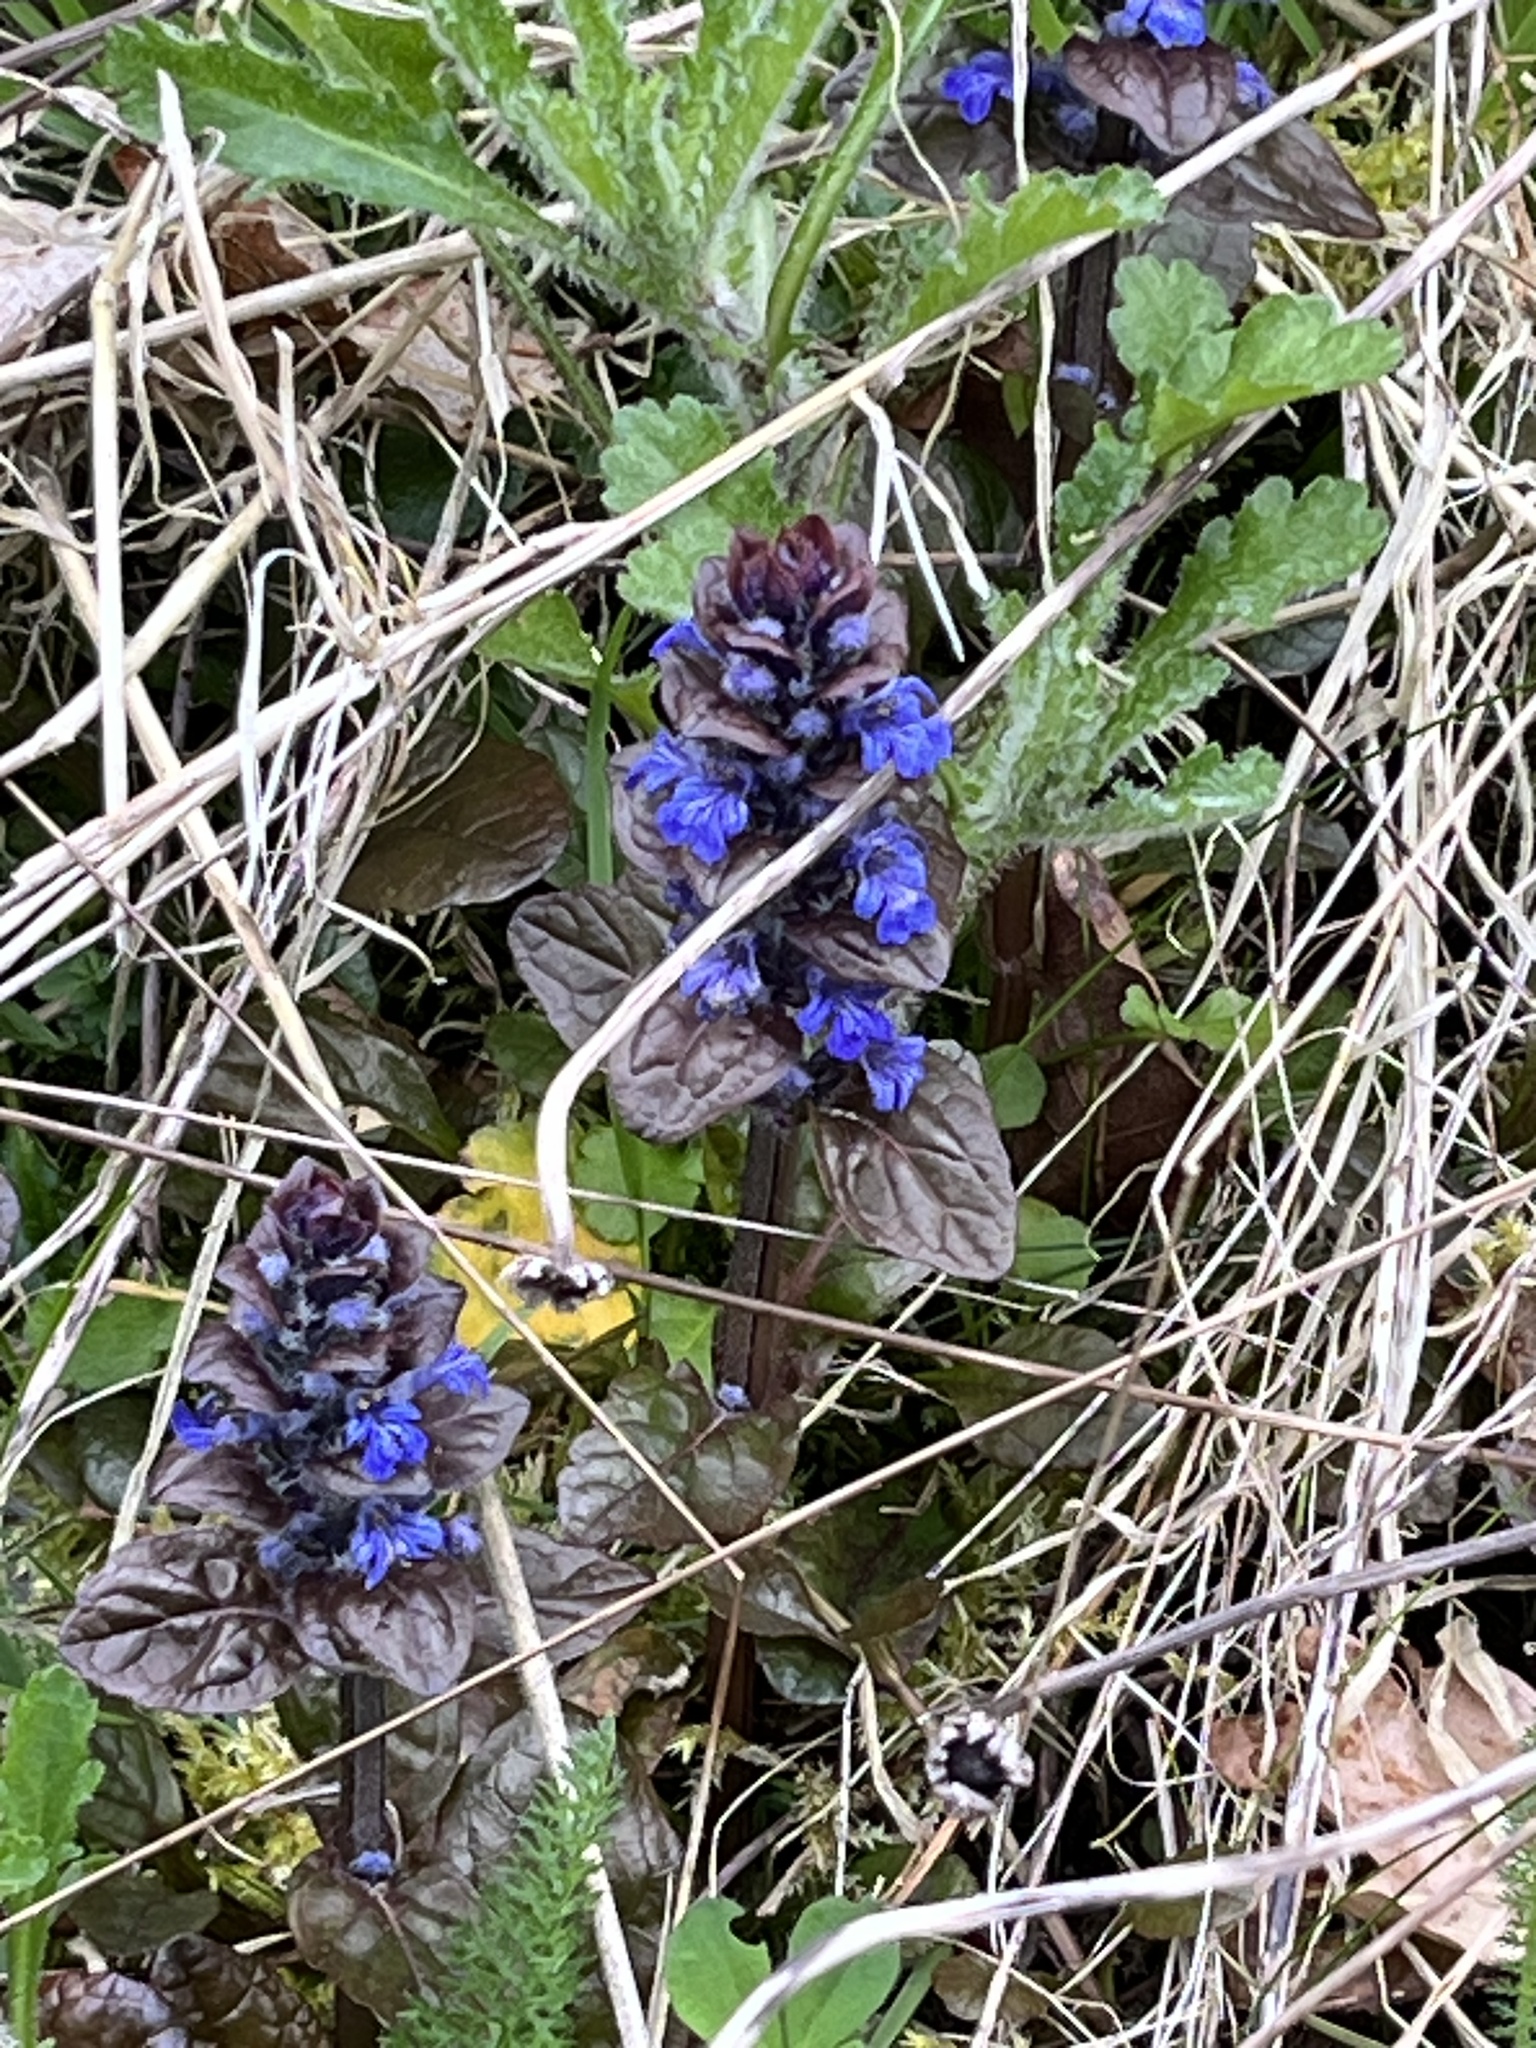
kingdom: Plantae
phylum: Tracheophyta
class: Magnoliopsida
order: Lamiales
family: Lamiaceae
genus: Ajuga
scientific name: Ajuga reptans
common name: Bugle
